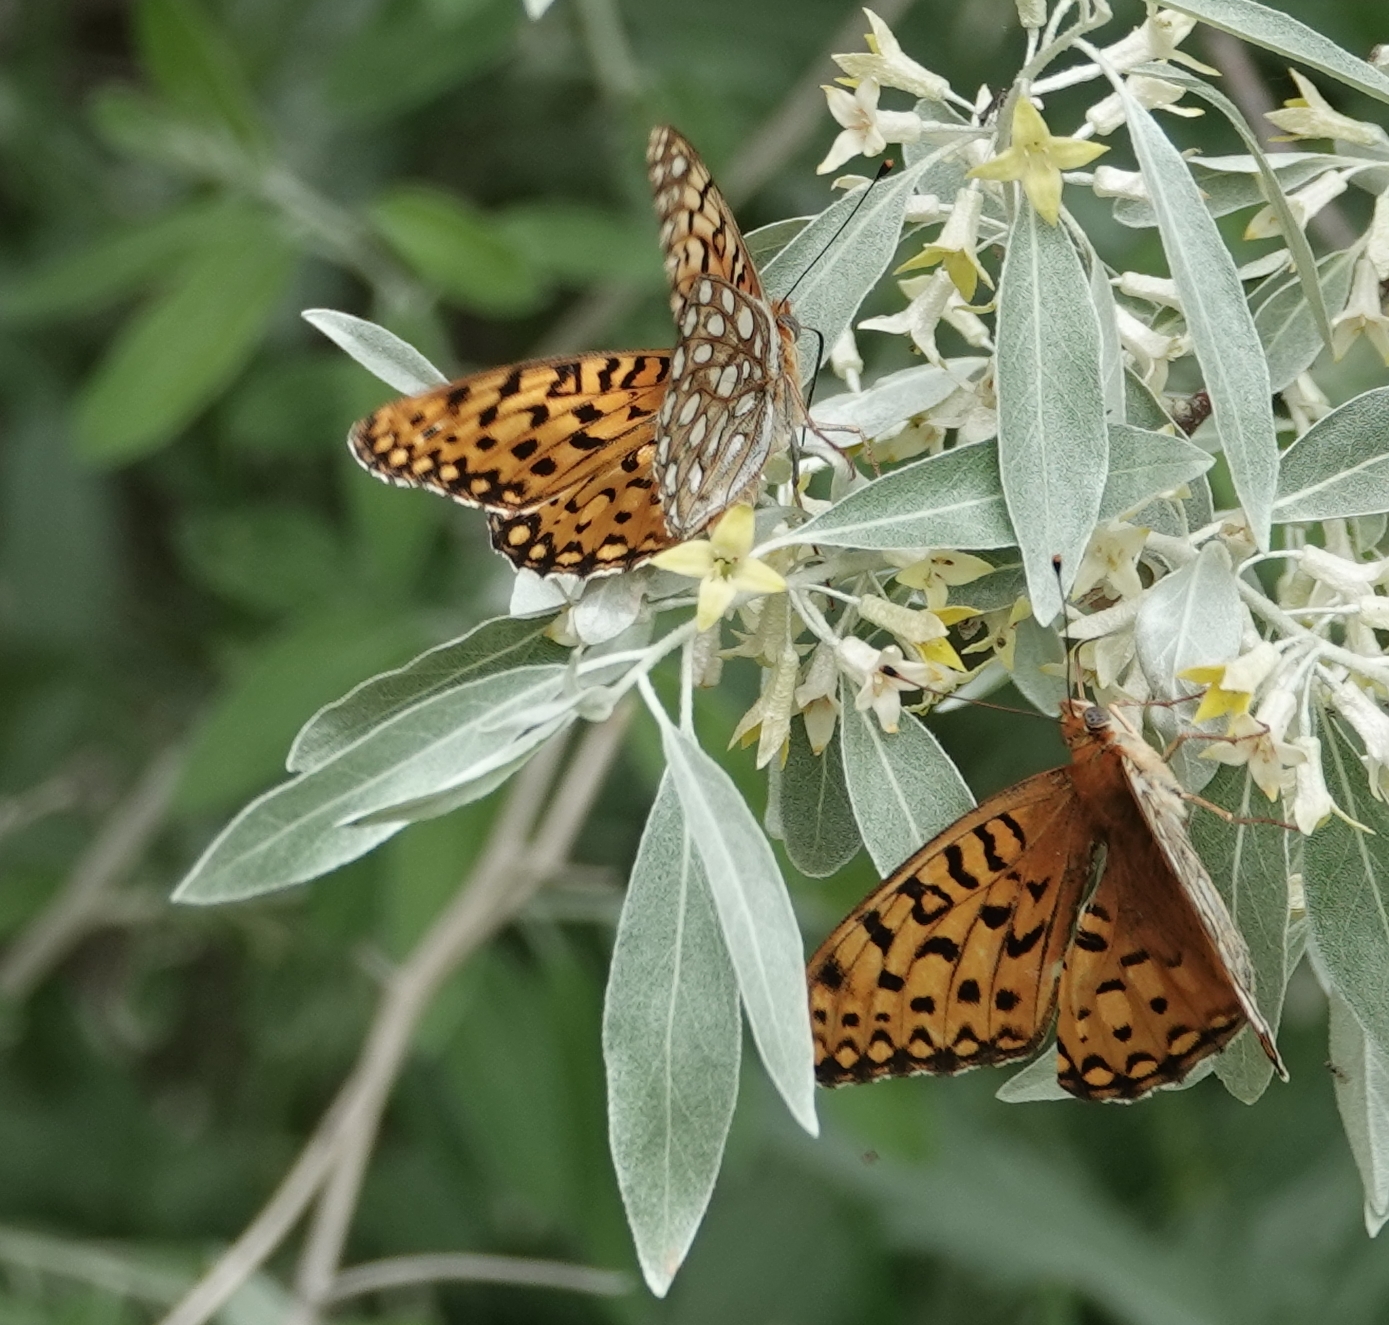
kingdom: Animalia
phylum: Arthropoda
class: Insecta
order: Lepidoptera
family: Nymphalidae
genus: Speyeria
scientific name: Speyeria edwardsii
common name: Edwards' fritillary
